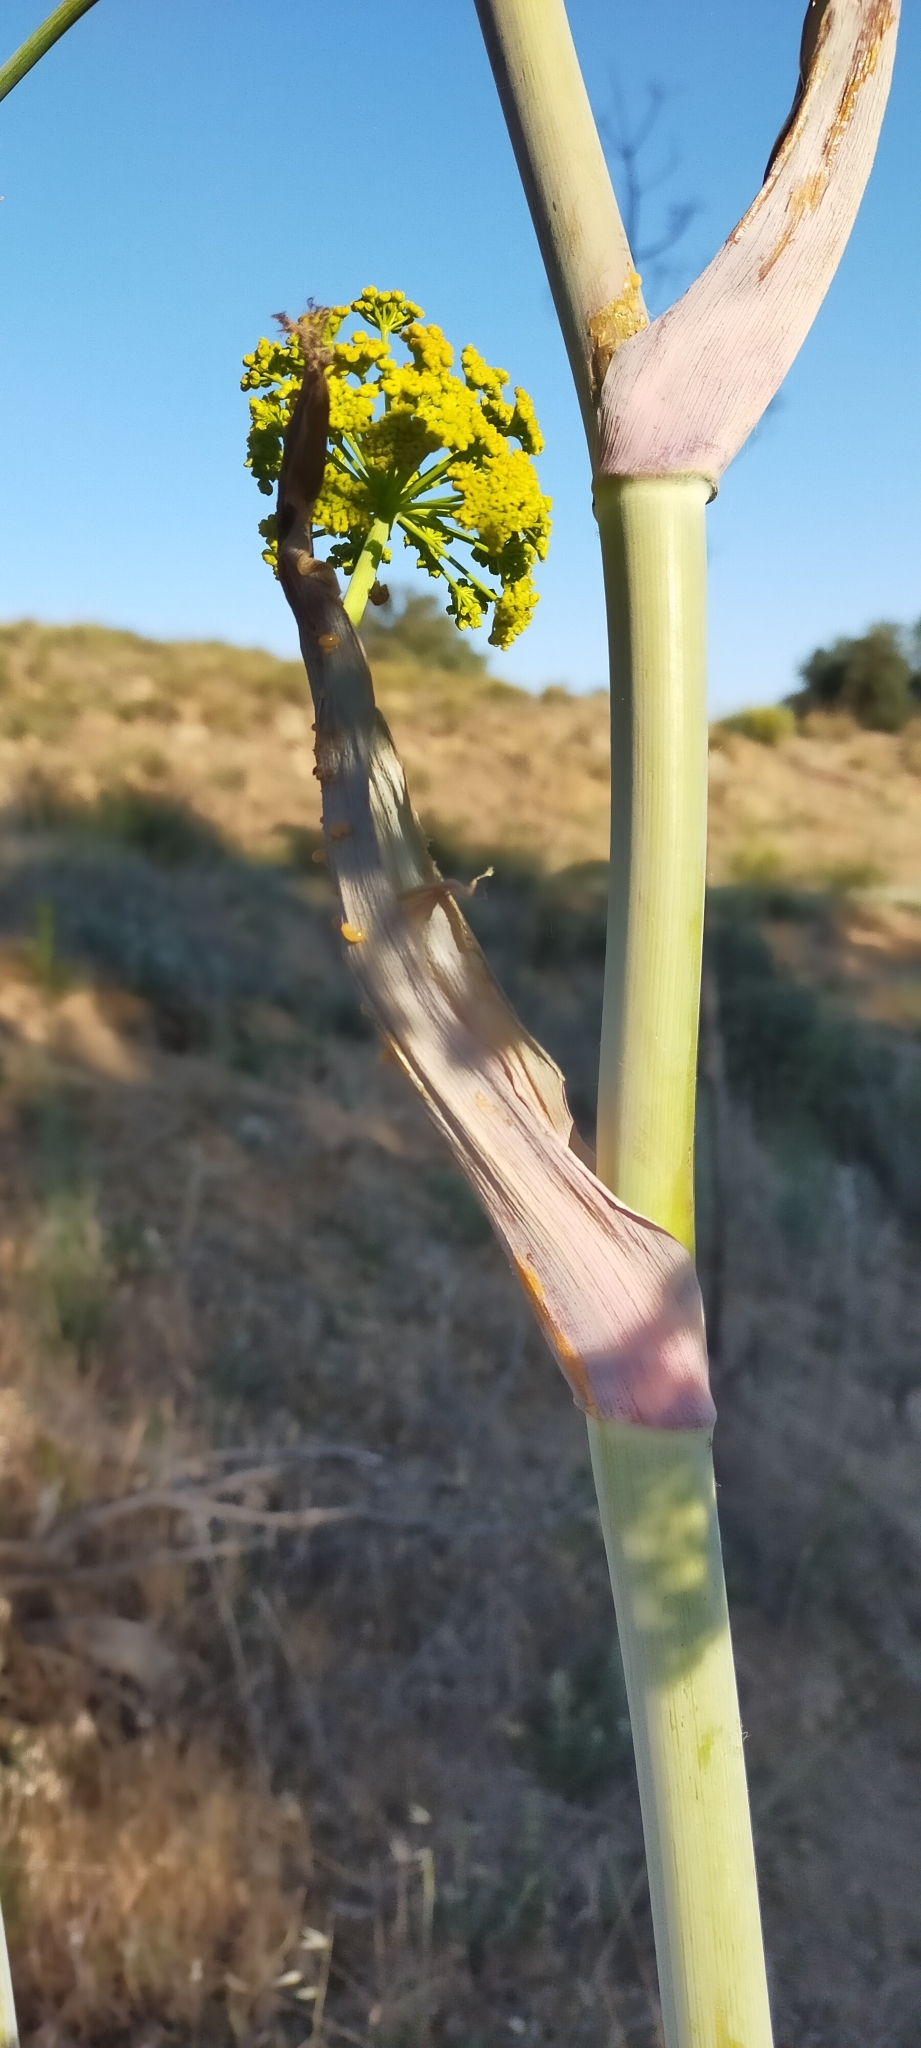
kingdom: Plantae
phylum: Tracheophyta
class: Magnoliopsida
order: Apiales
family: Apiaceae
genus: Ferula
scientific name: Ferula communis
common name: Giant fennel
